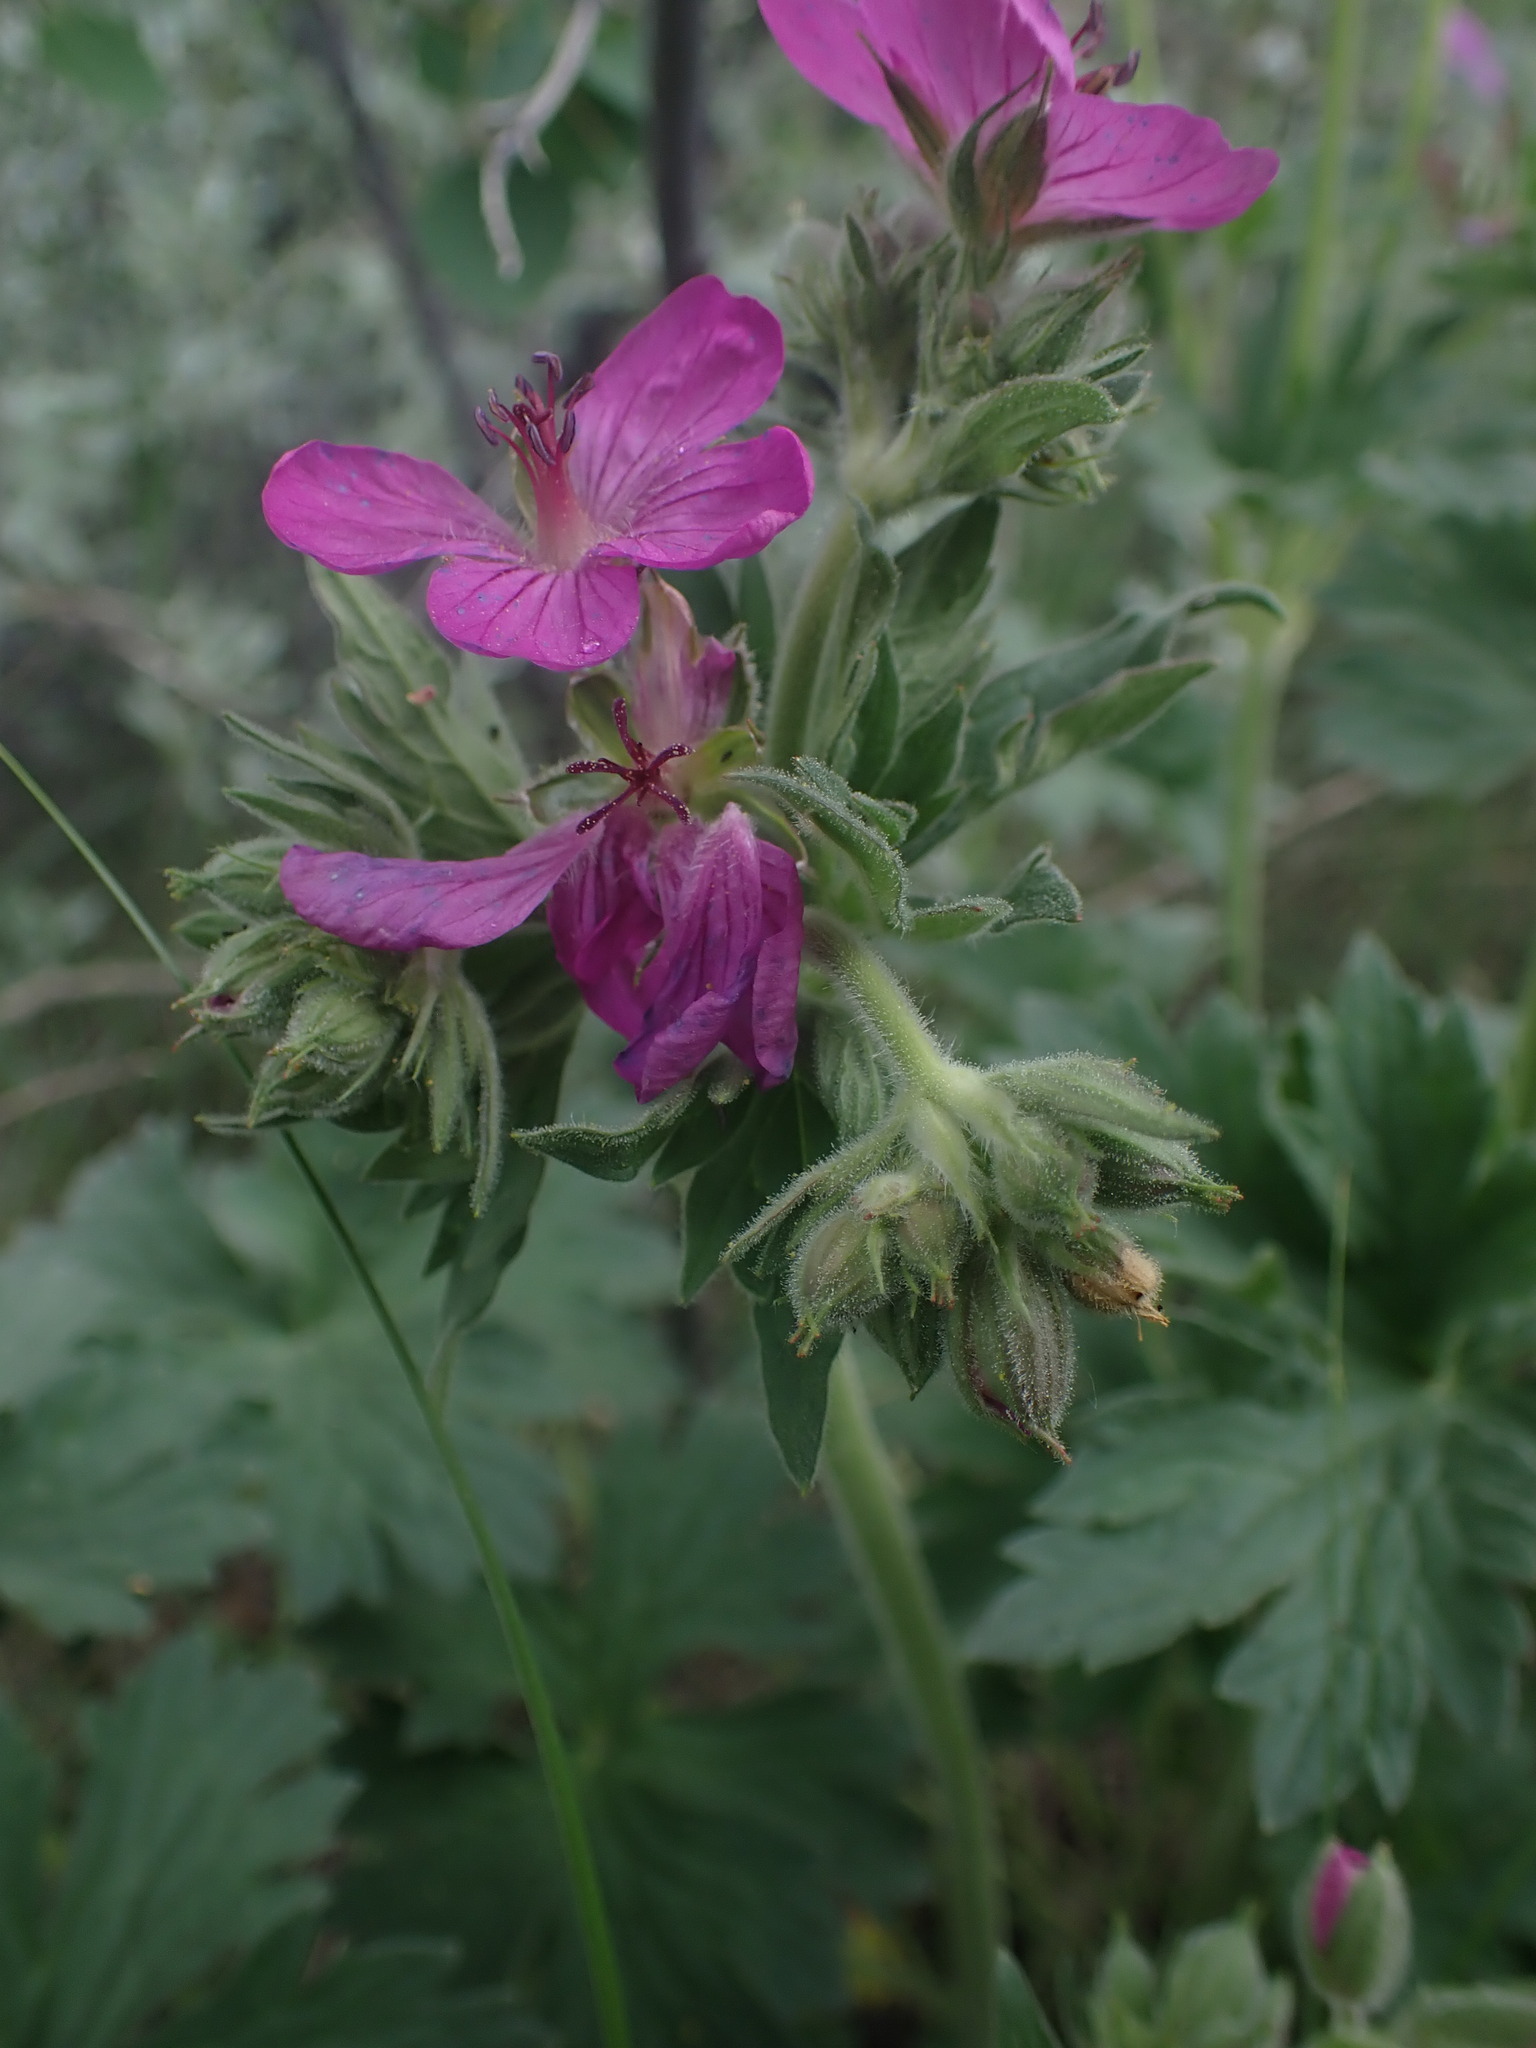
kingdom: Plantae
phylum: Tracheophyta
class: Magnoliopsida
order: Geraniales
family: Geraniaceae
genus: Geranium
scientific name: Geranium viscosissimum
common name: Purple geranium
